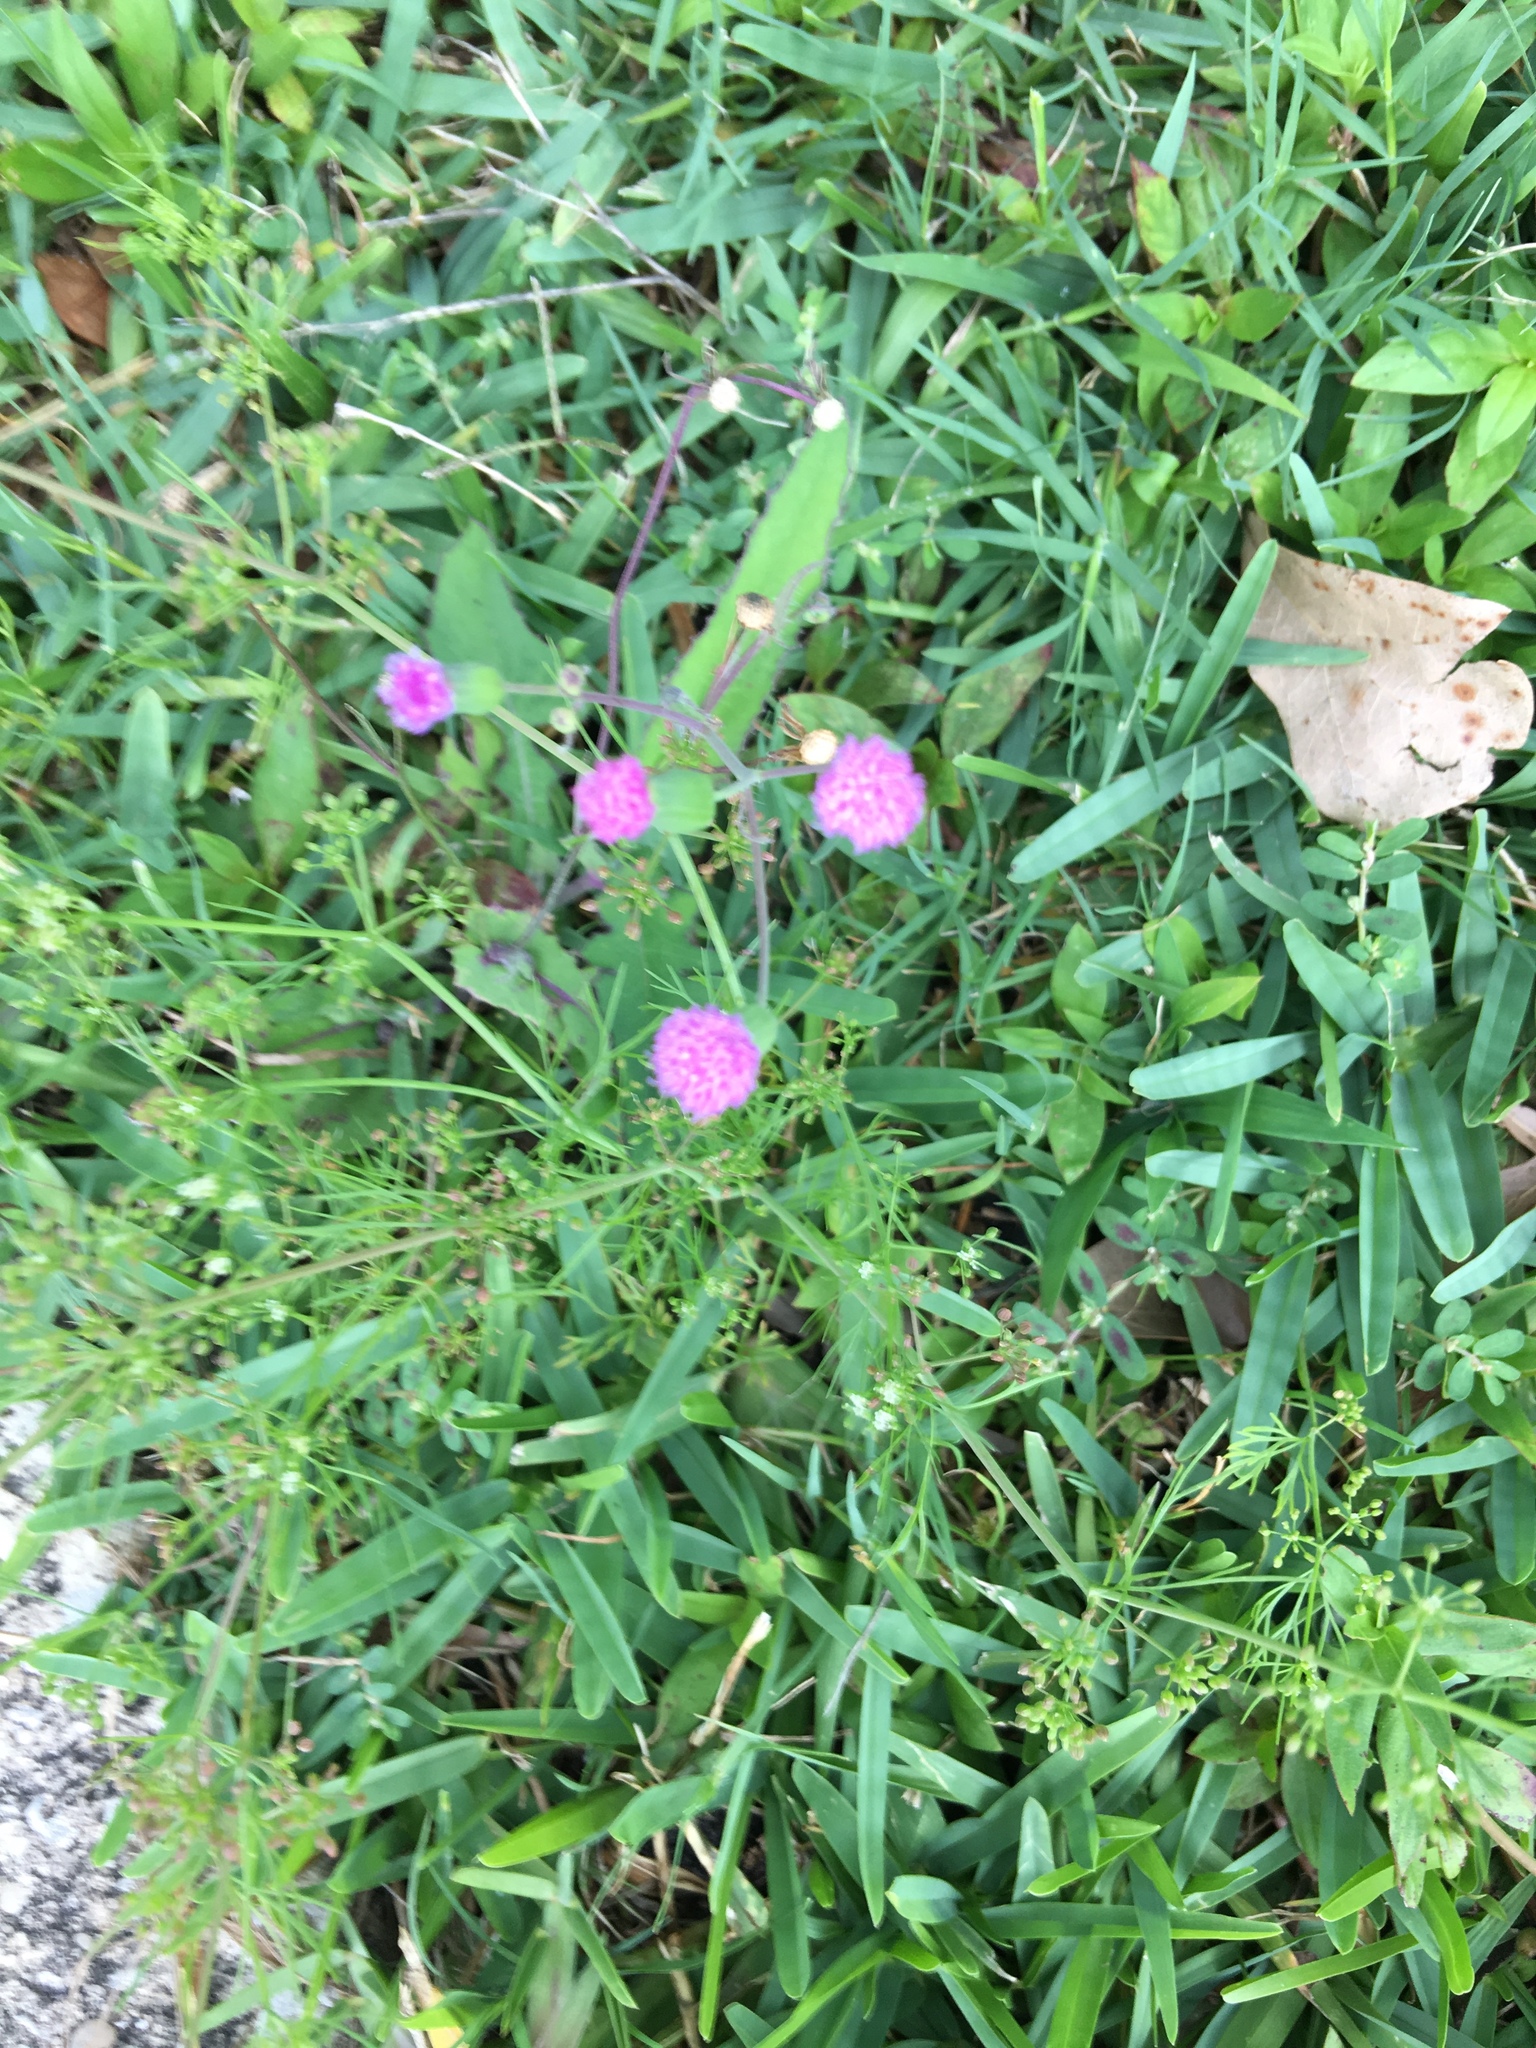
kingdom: Plantae
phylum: Tracheophyta
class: Magnoliopsida
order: Asterales
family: Asteraceae
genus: Emilia
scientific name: Emilia sonchifolia
